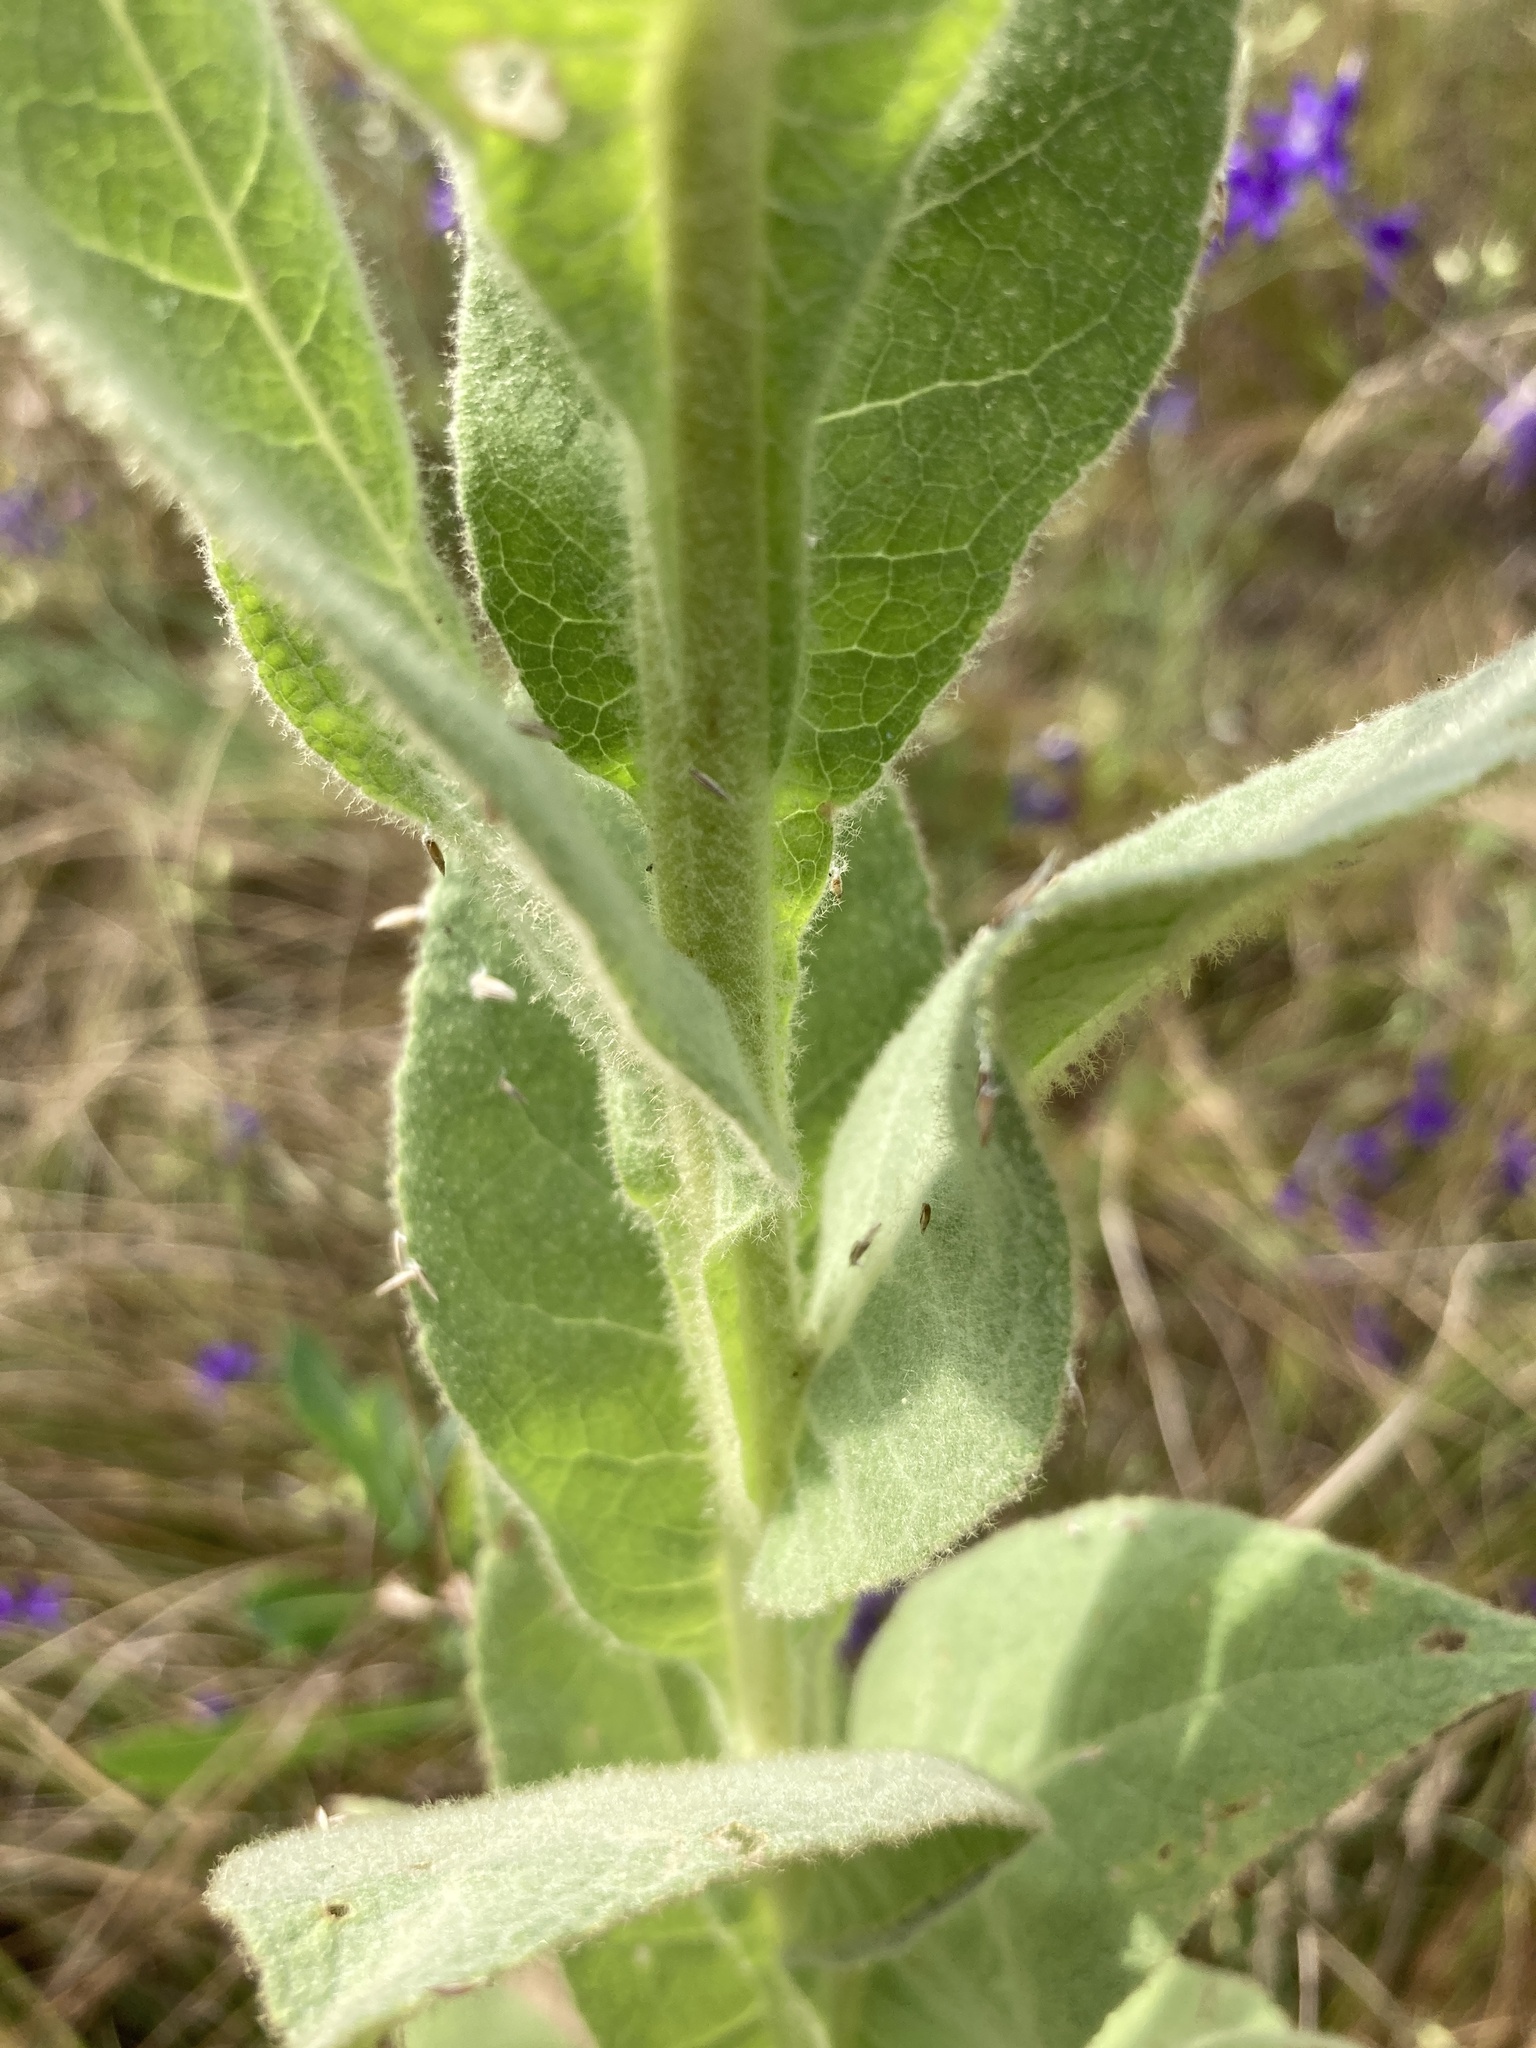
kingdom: Plantae
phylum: Tracheophyta
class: Magnoliopsida
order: Lamiales
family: Scrophulariaceae
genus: Verbascum
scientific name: Verbascum densiflorum
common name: Dense-flowered mullein
